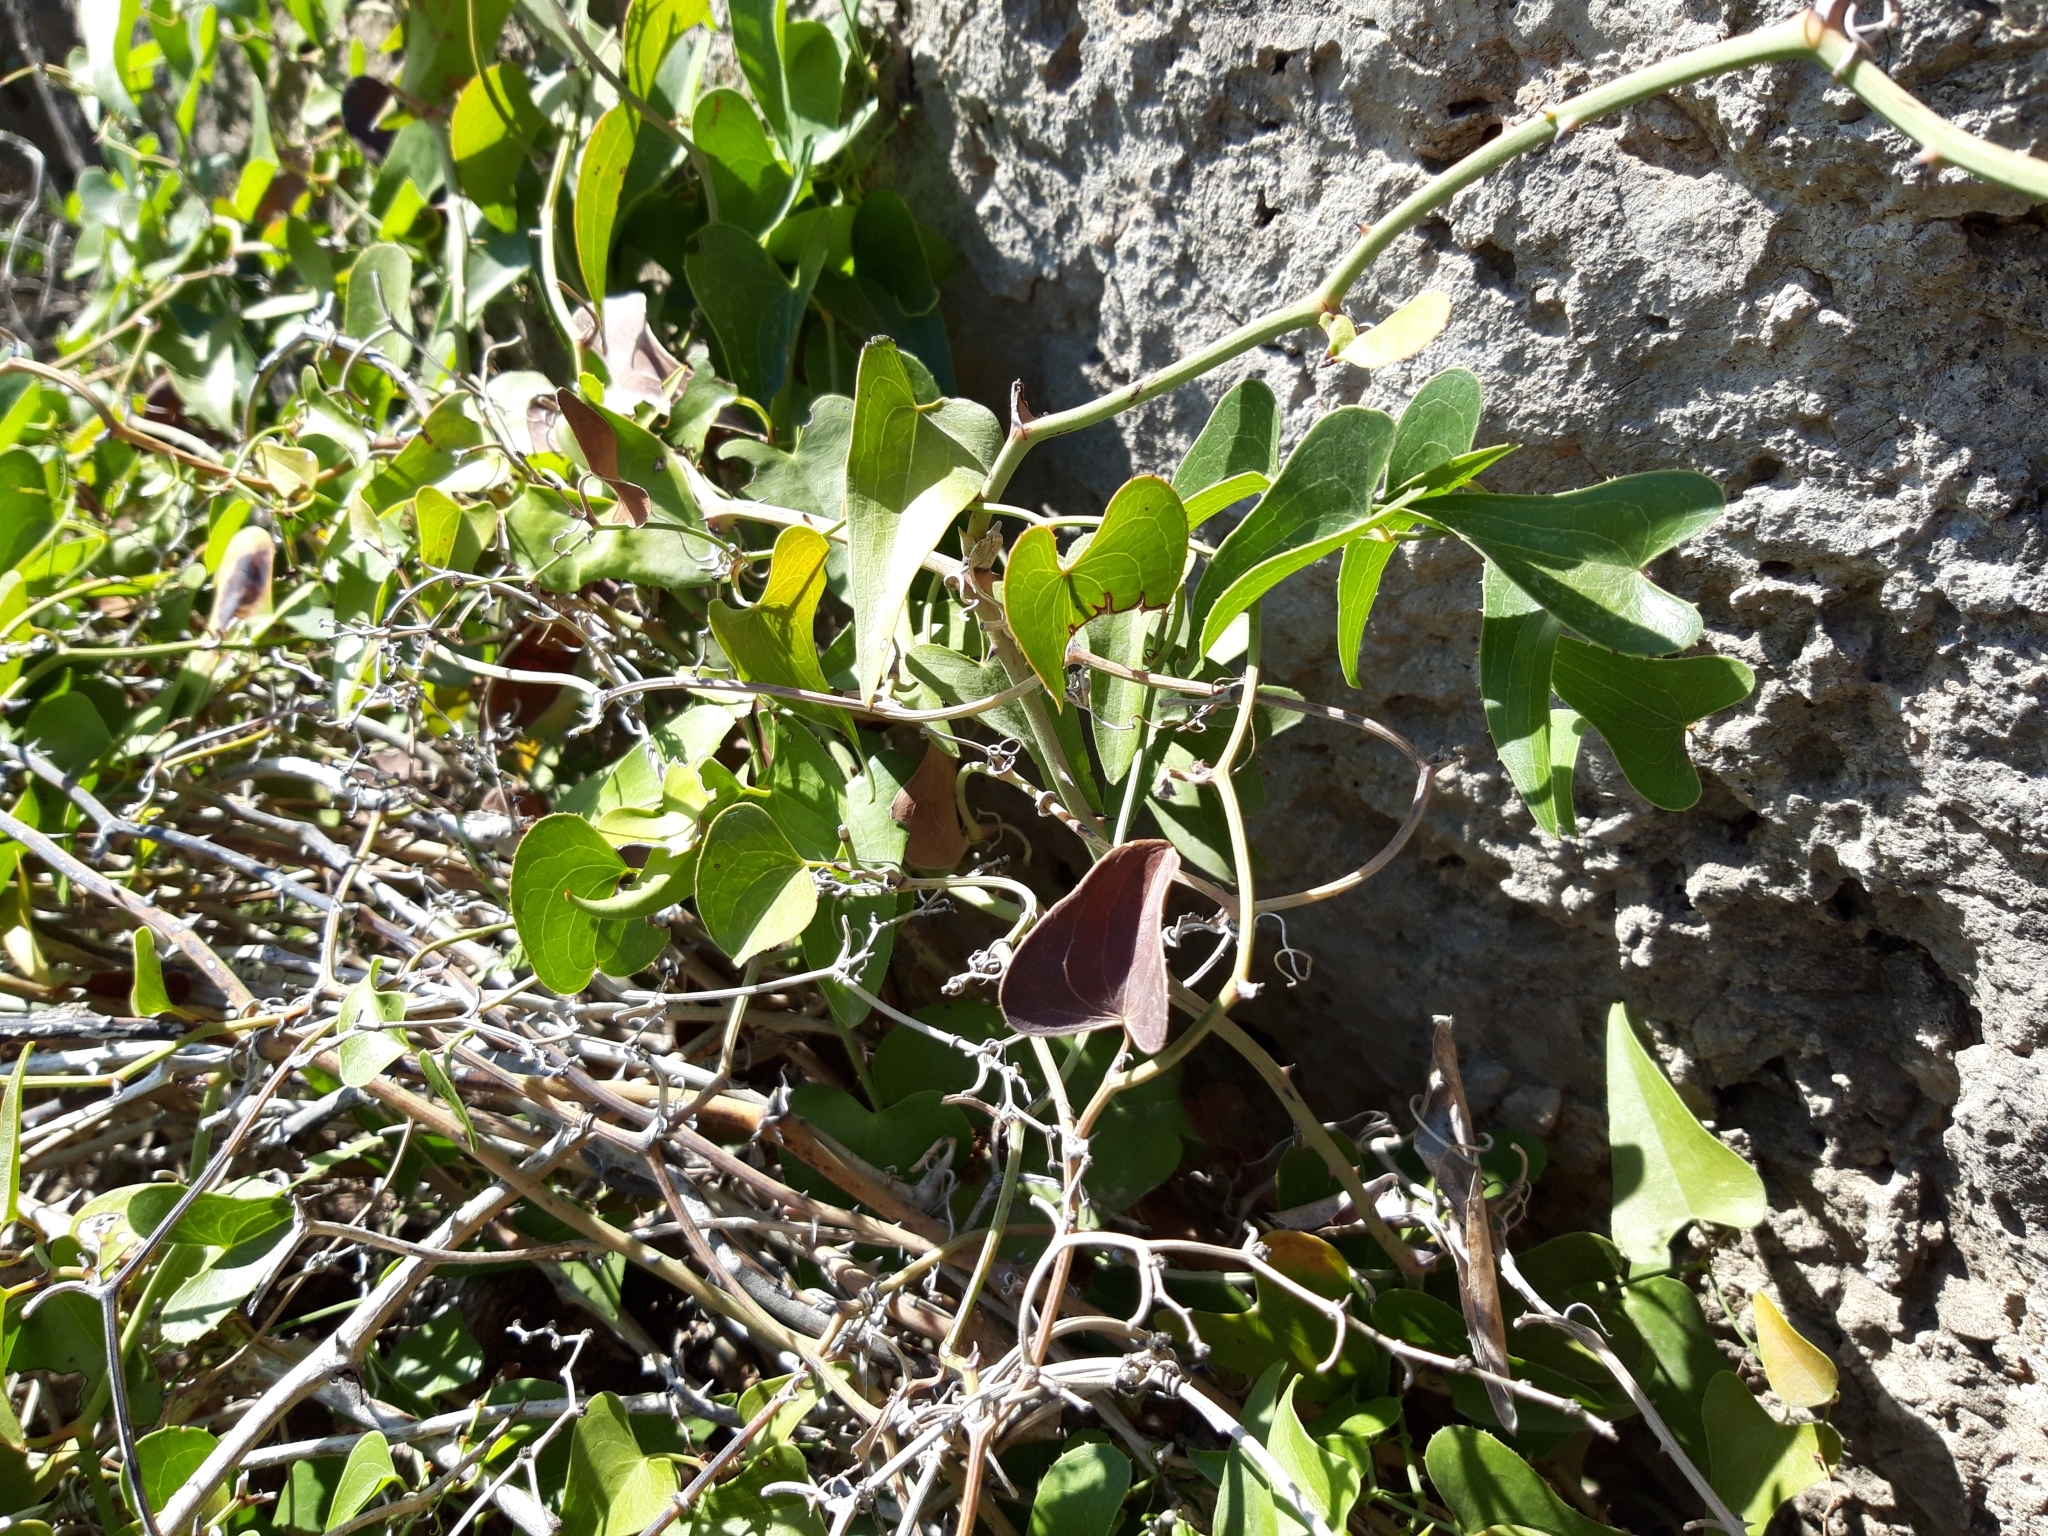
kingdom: Plantae
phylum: Tracheophyta
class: Liliopsida
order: Liliales
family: Smilacaceae
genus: Smilax
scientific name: Smilax aspera
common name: Common smilax
